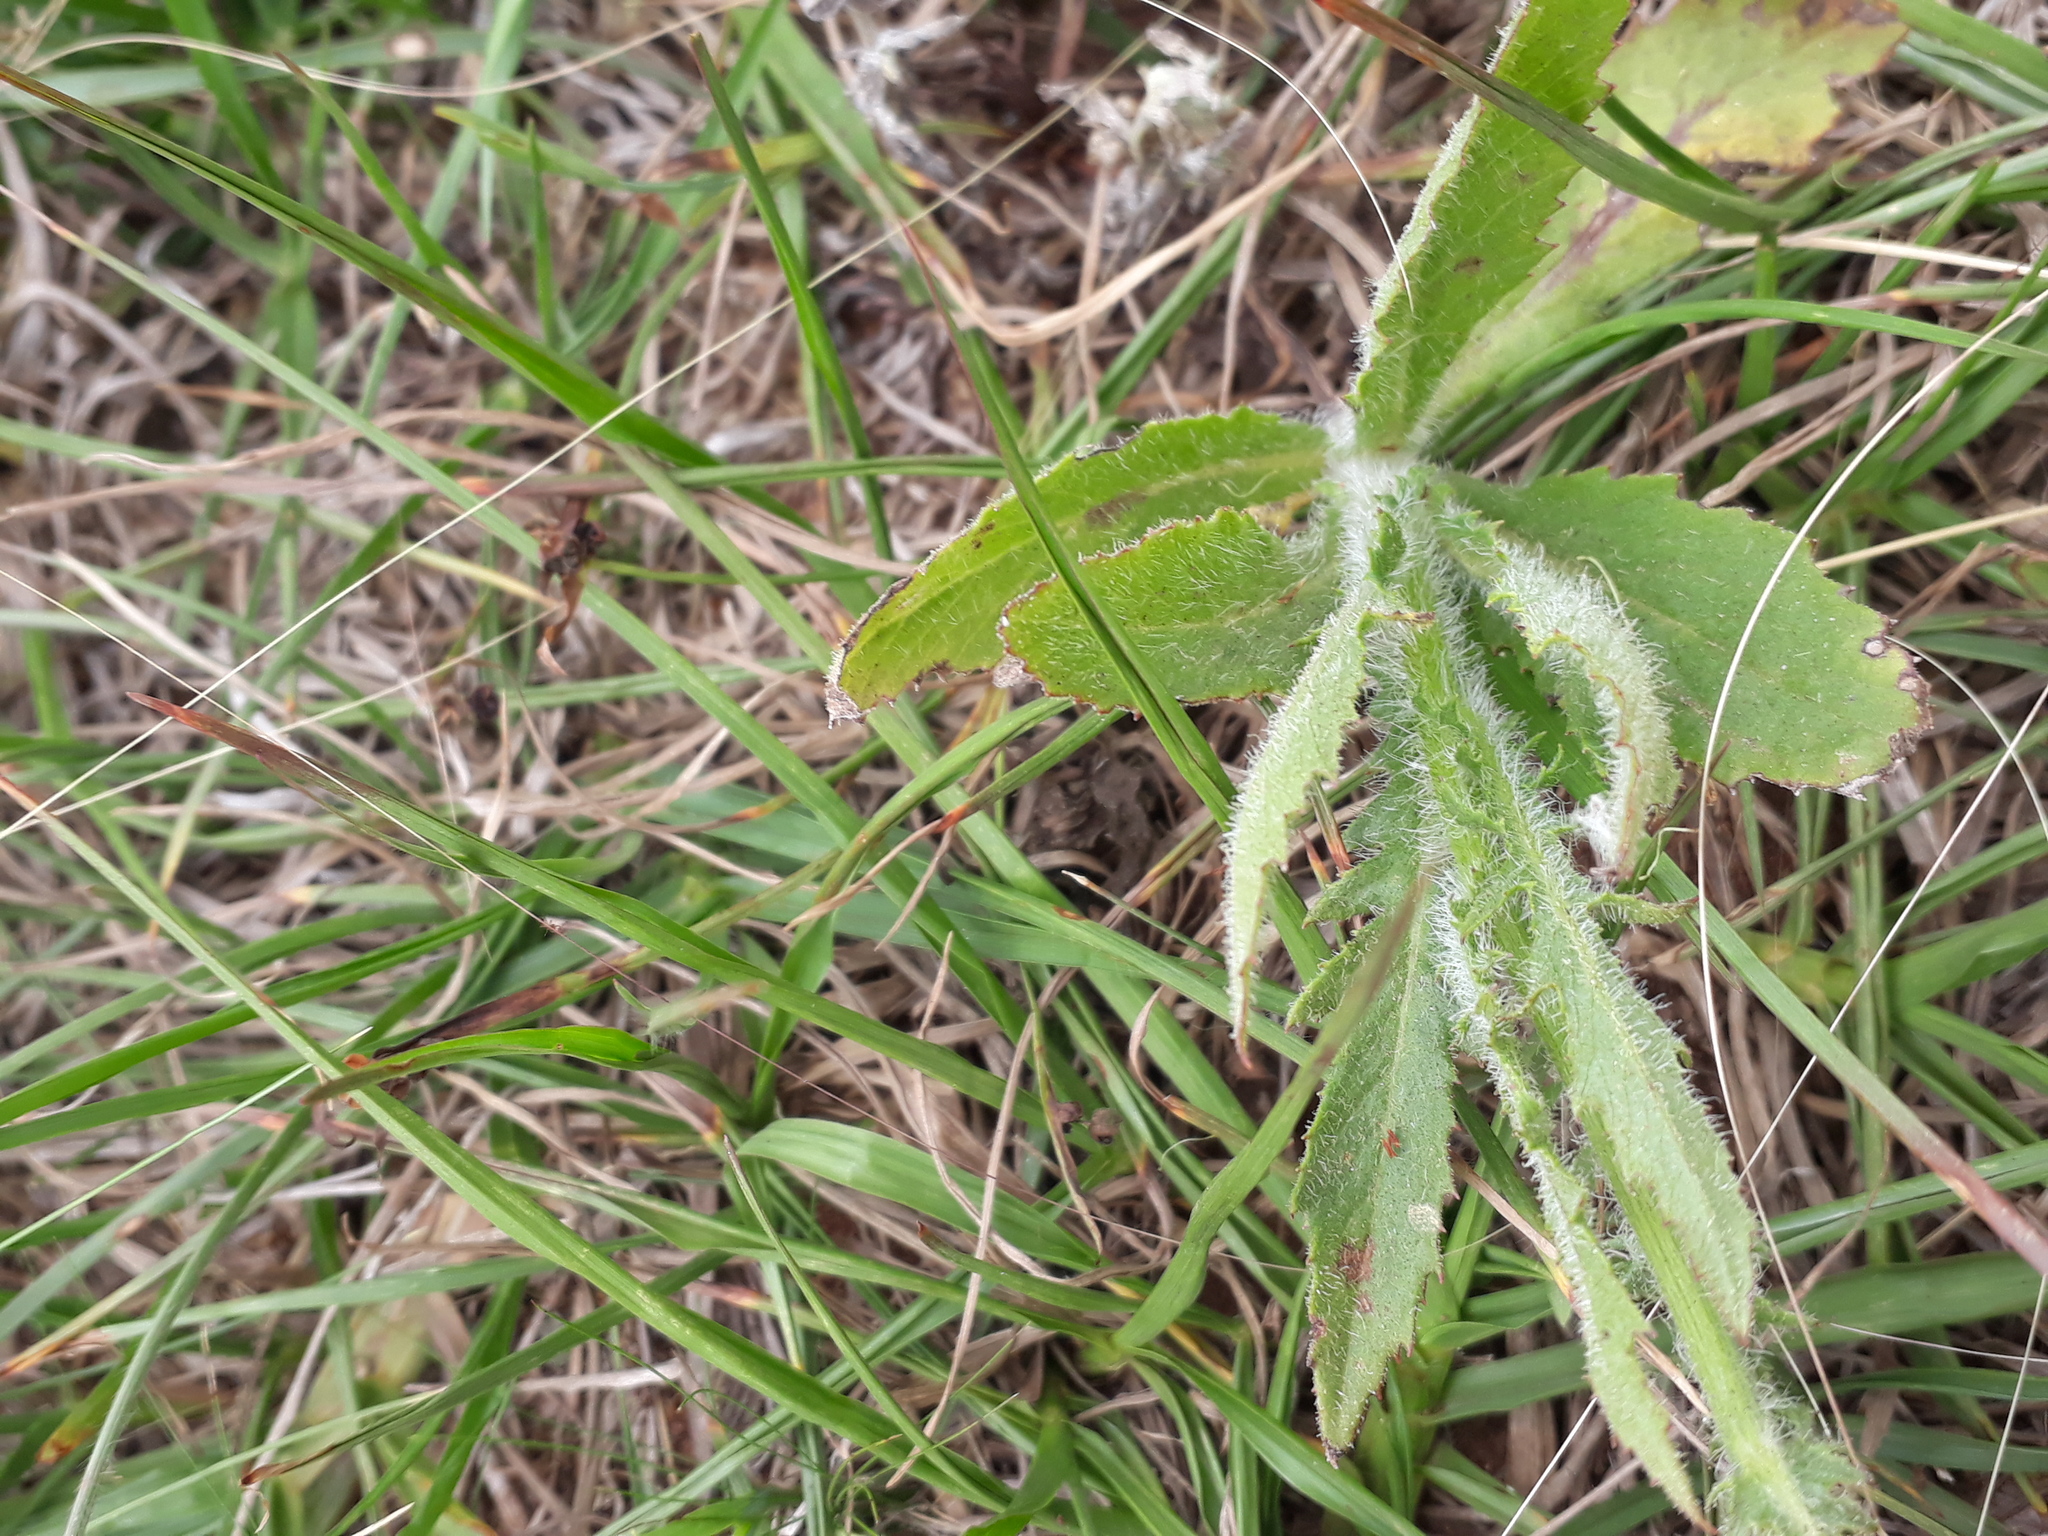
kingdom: Plantae
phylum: Tracheophyta
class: Magnoliopsida
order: Asterales
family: Asteraceae
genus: Erechtites
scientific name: Erechtites hieraciifolius
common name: American burnweed
